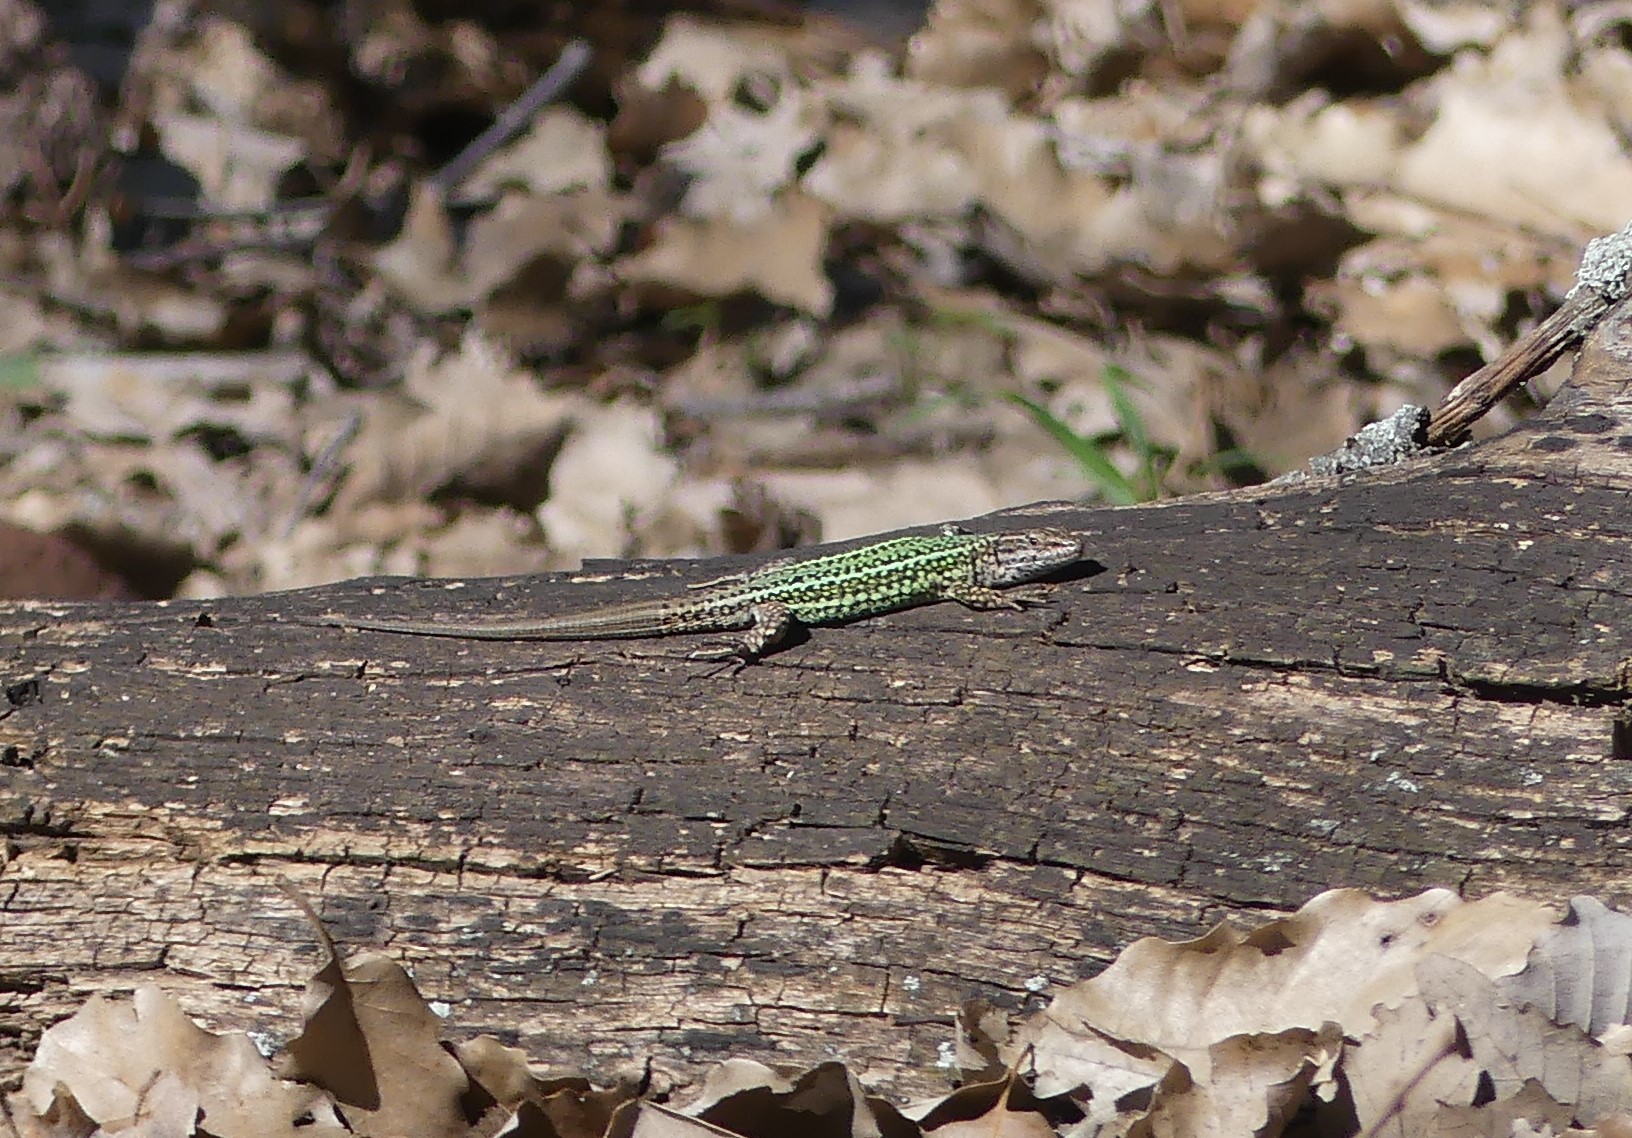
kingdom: Animalia
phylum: Chordata
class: Squamata
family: Lacertidae
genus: Podarcis
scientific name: Podarcis vaucheri
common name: Vaucher's wall lizard
